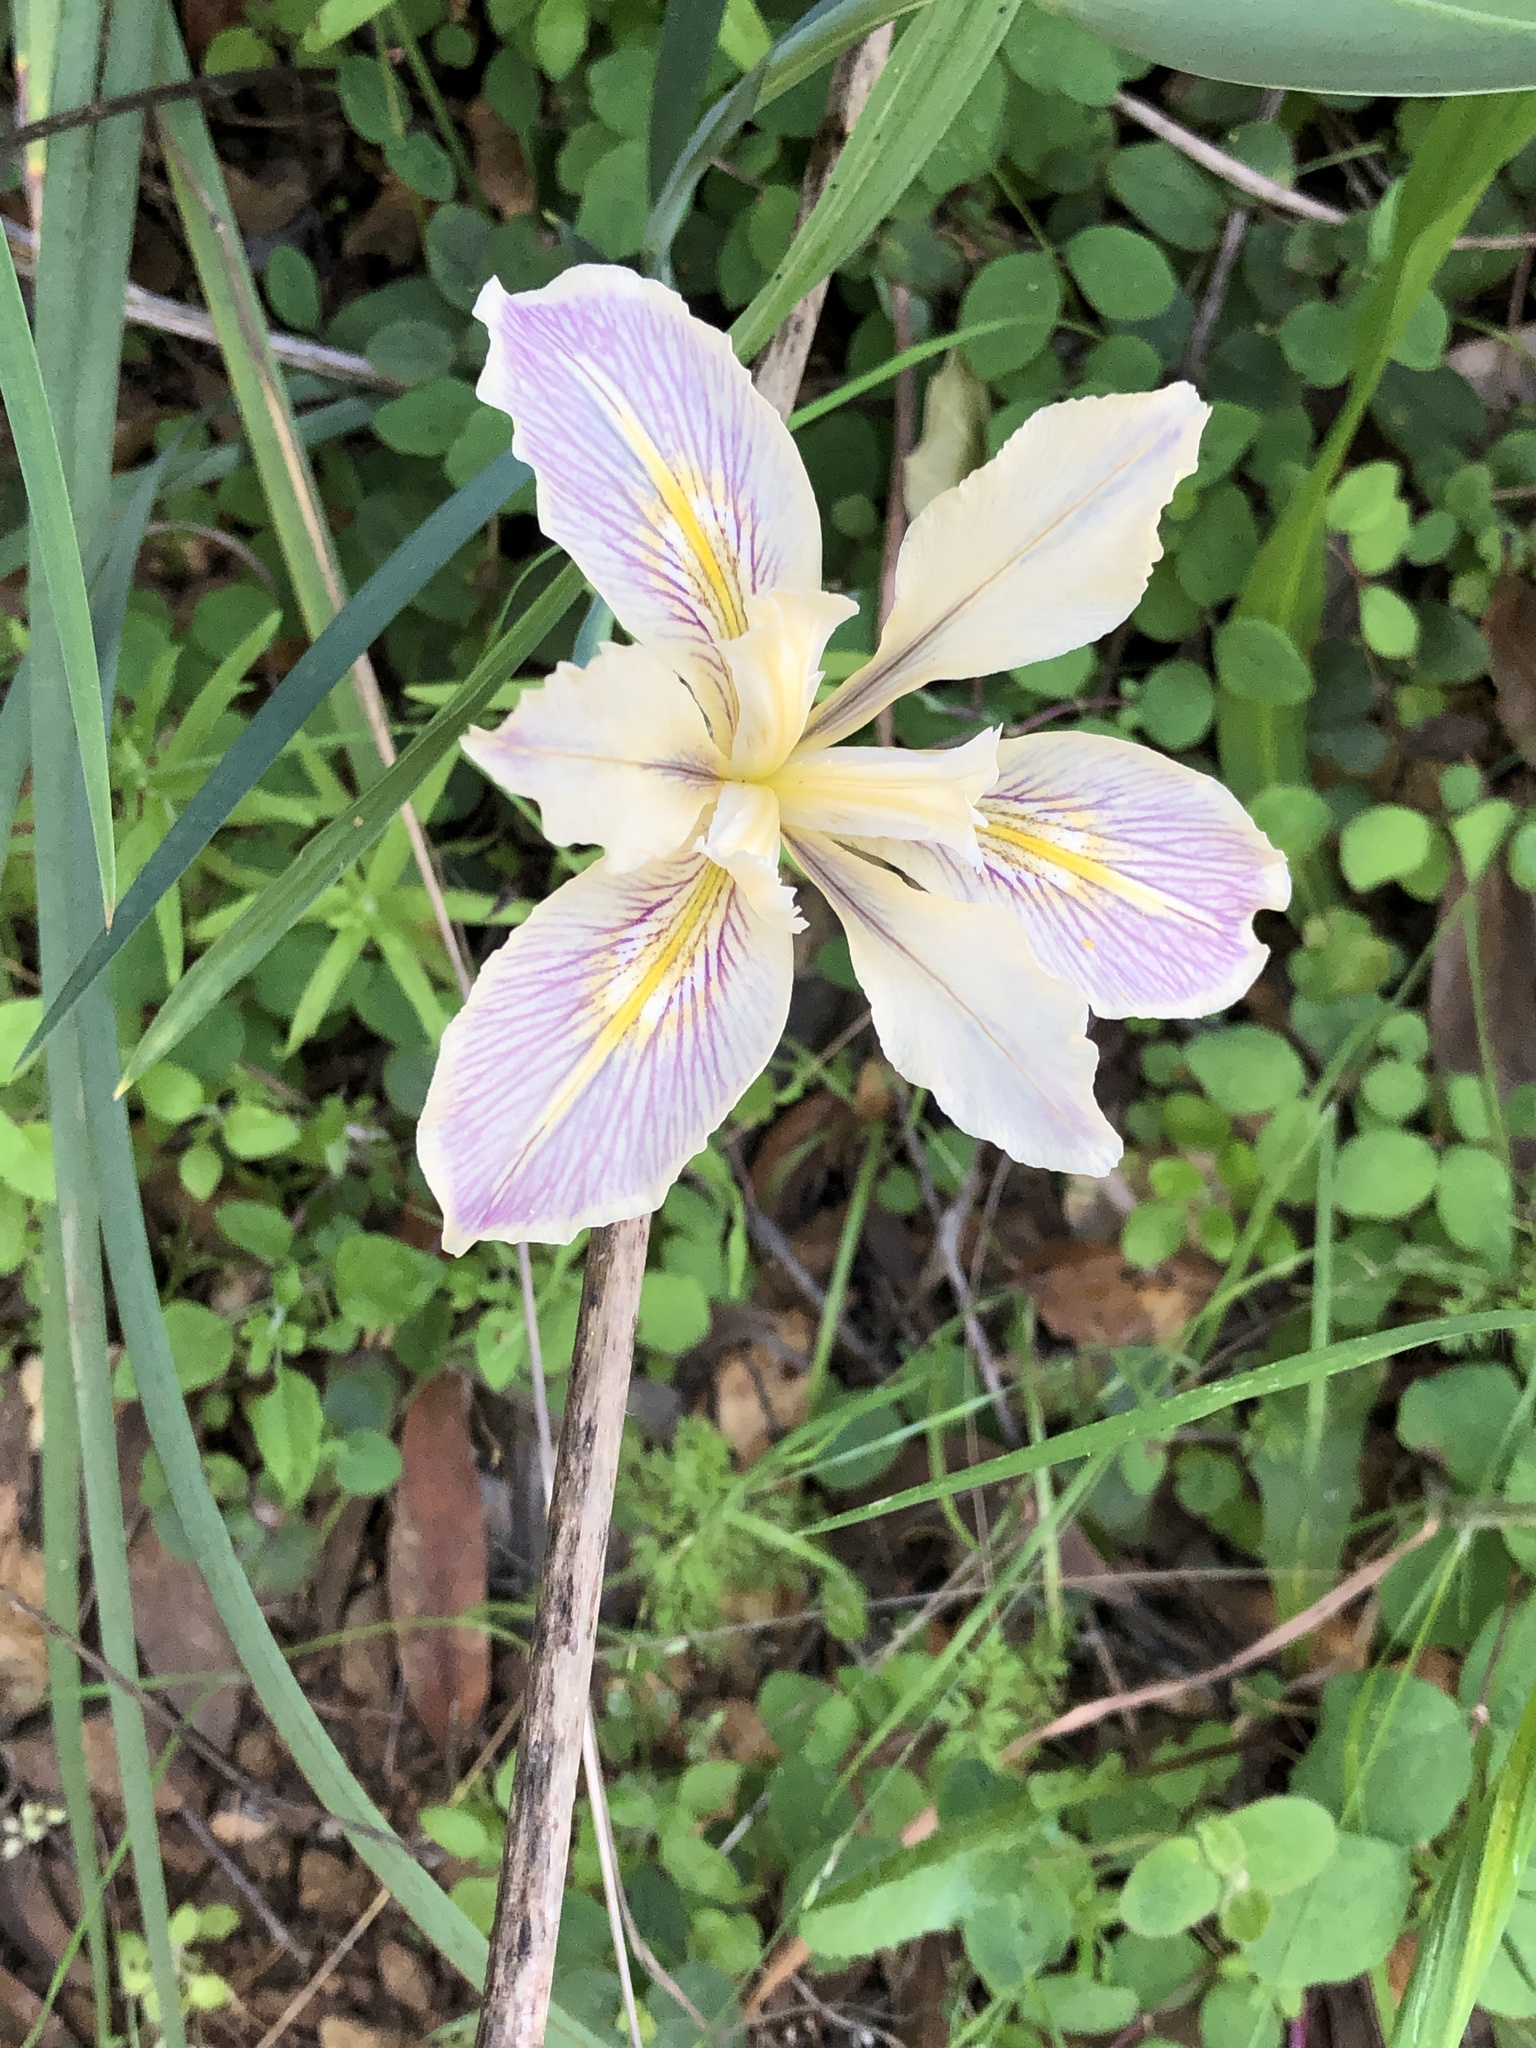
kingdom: Plantae
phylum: Tracheophyta
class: Liliopsida
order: Asparagales
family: Iridaceae
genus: Iris
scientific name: Iris fernaldii
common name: Fernald's iris
